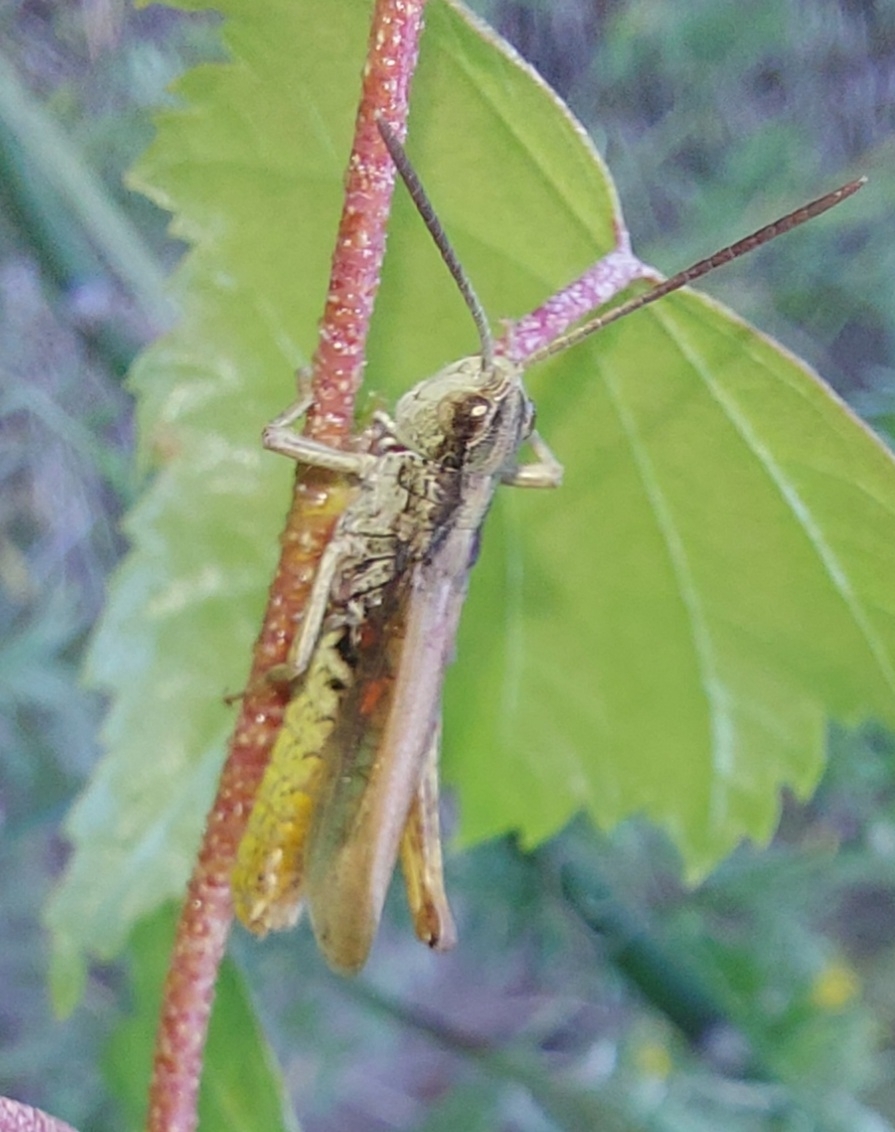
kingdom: Animalia
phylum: Arthropoda
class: Insecta
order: Orthoptera
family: Acrididae
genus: Chorthippus
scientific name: Chorthippus apricarius
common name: Upland field grasshopper
